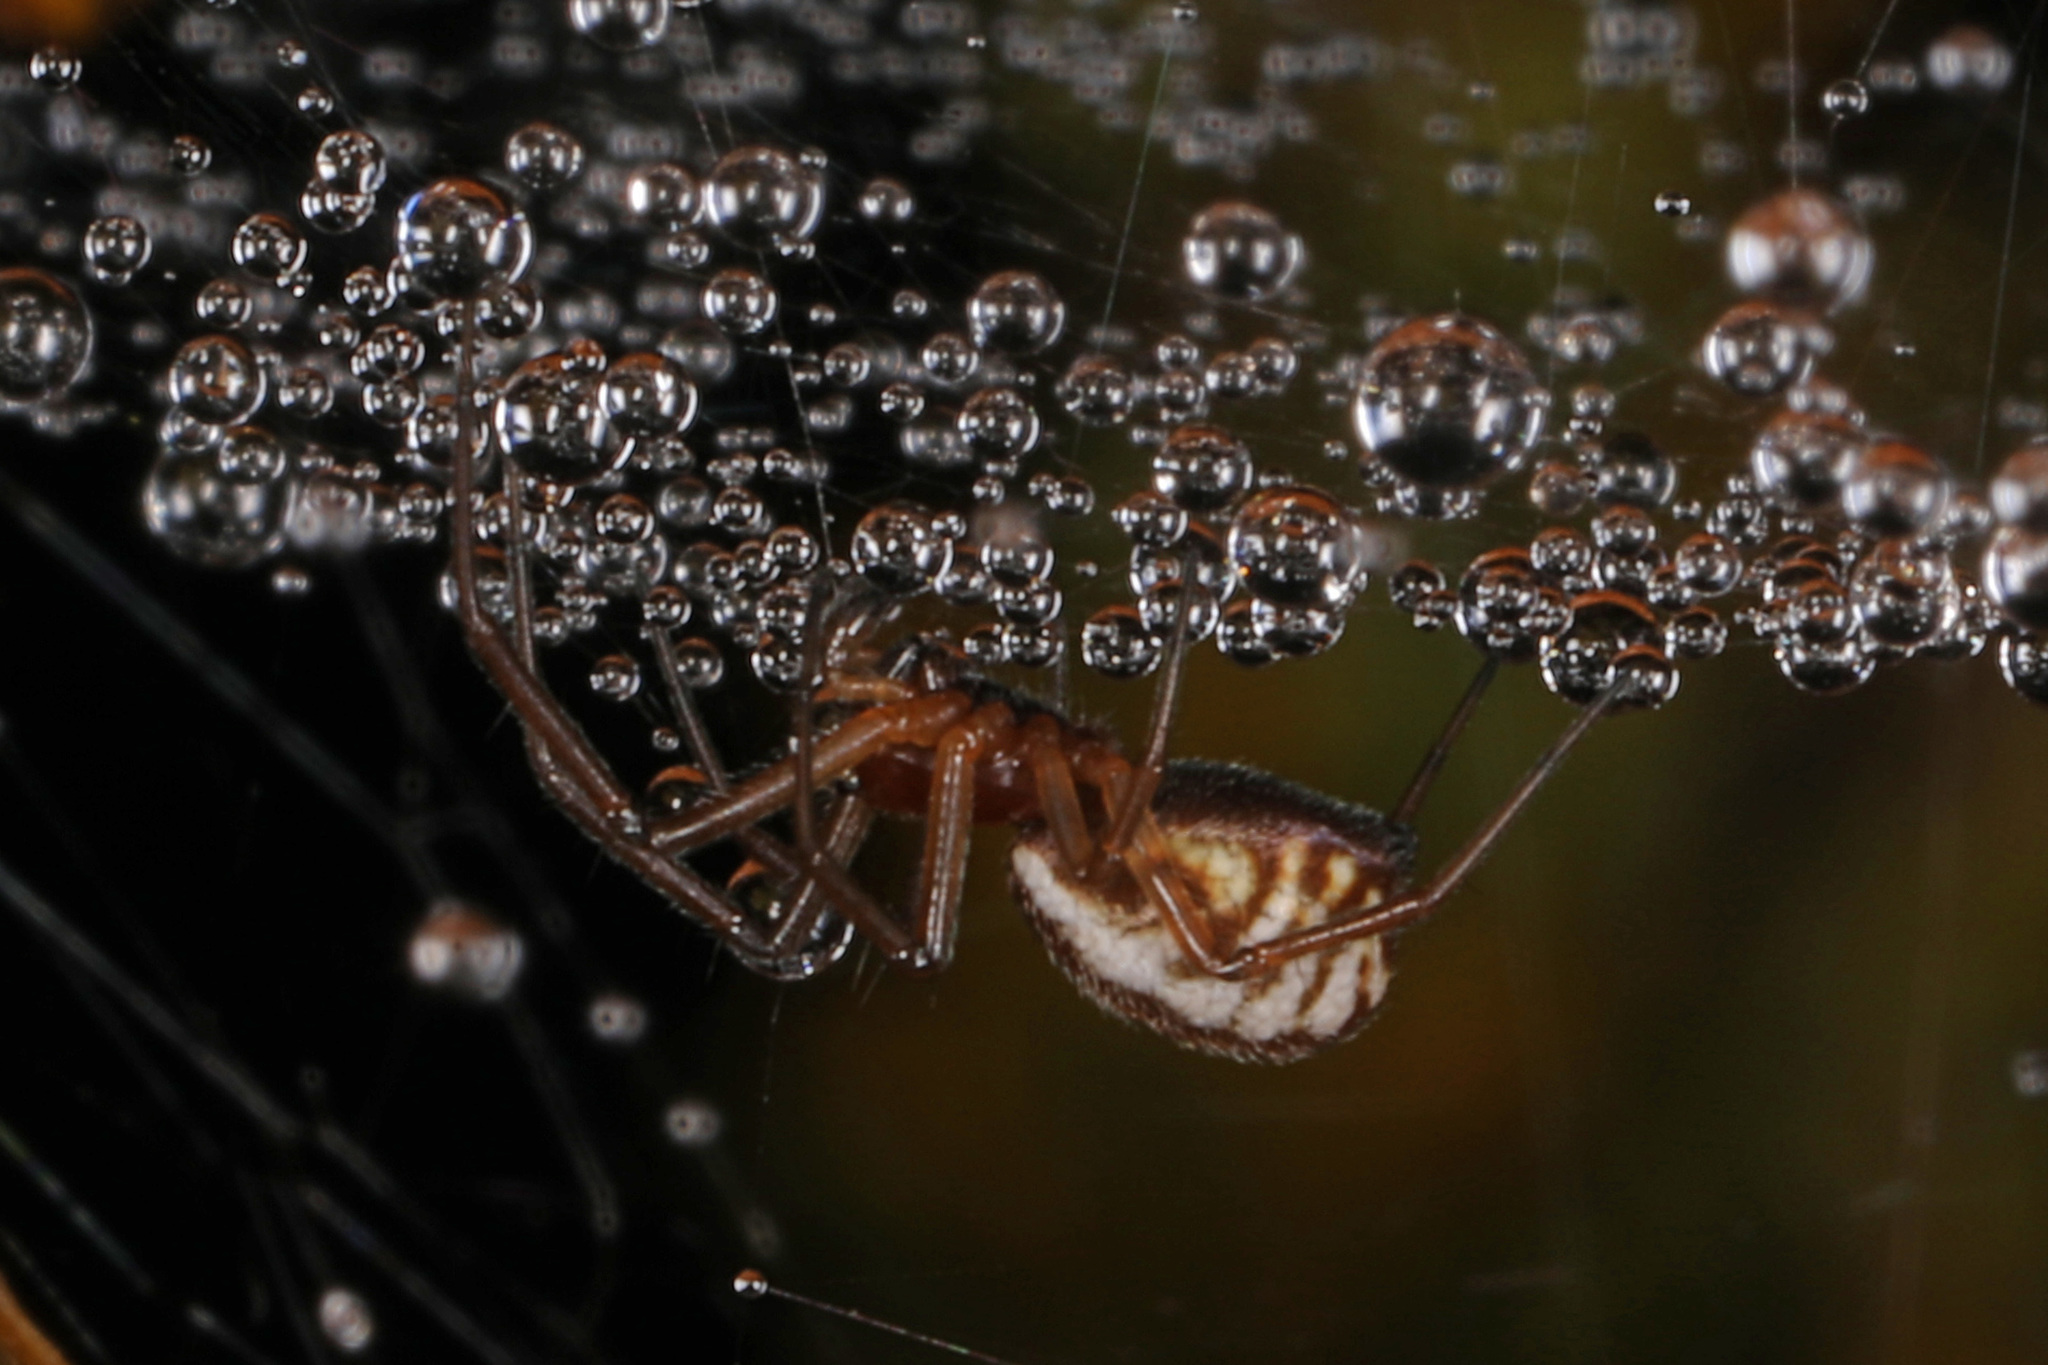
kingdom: Animalia
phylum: Arthropoda
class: Arachnida
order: Araneae
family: Linyphiidae
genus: Frontinella
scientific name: Frontinella pyramitela
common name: Bowl-and-doily spider
